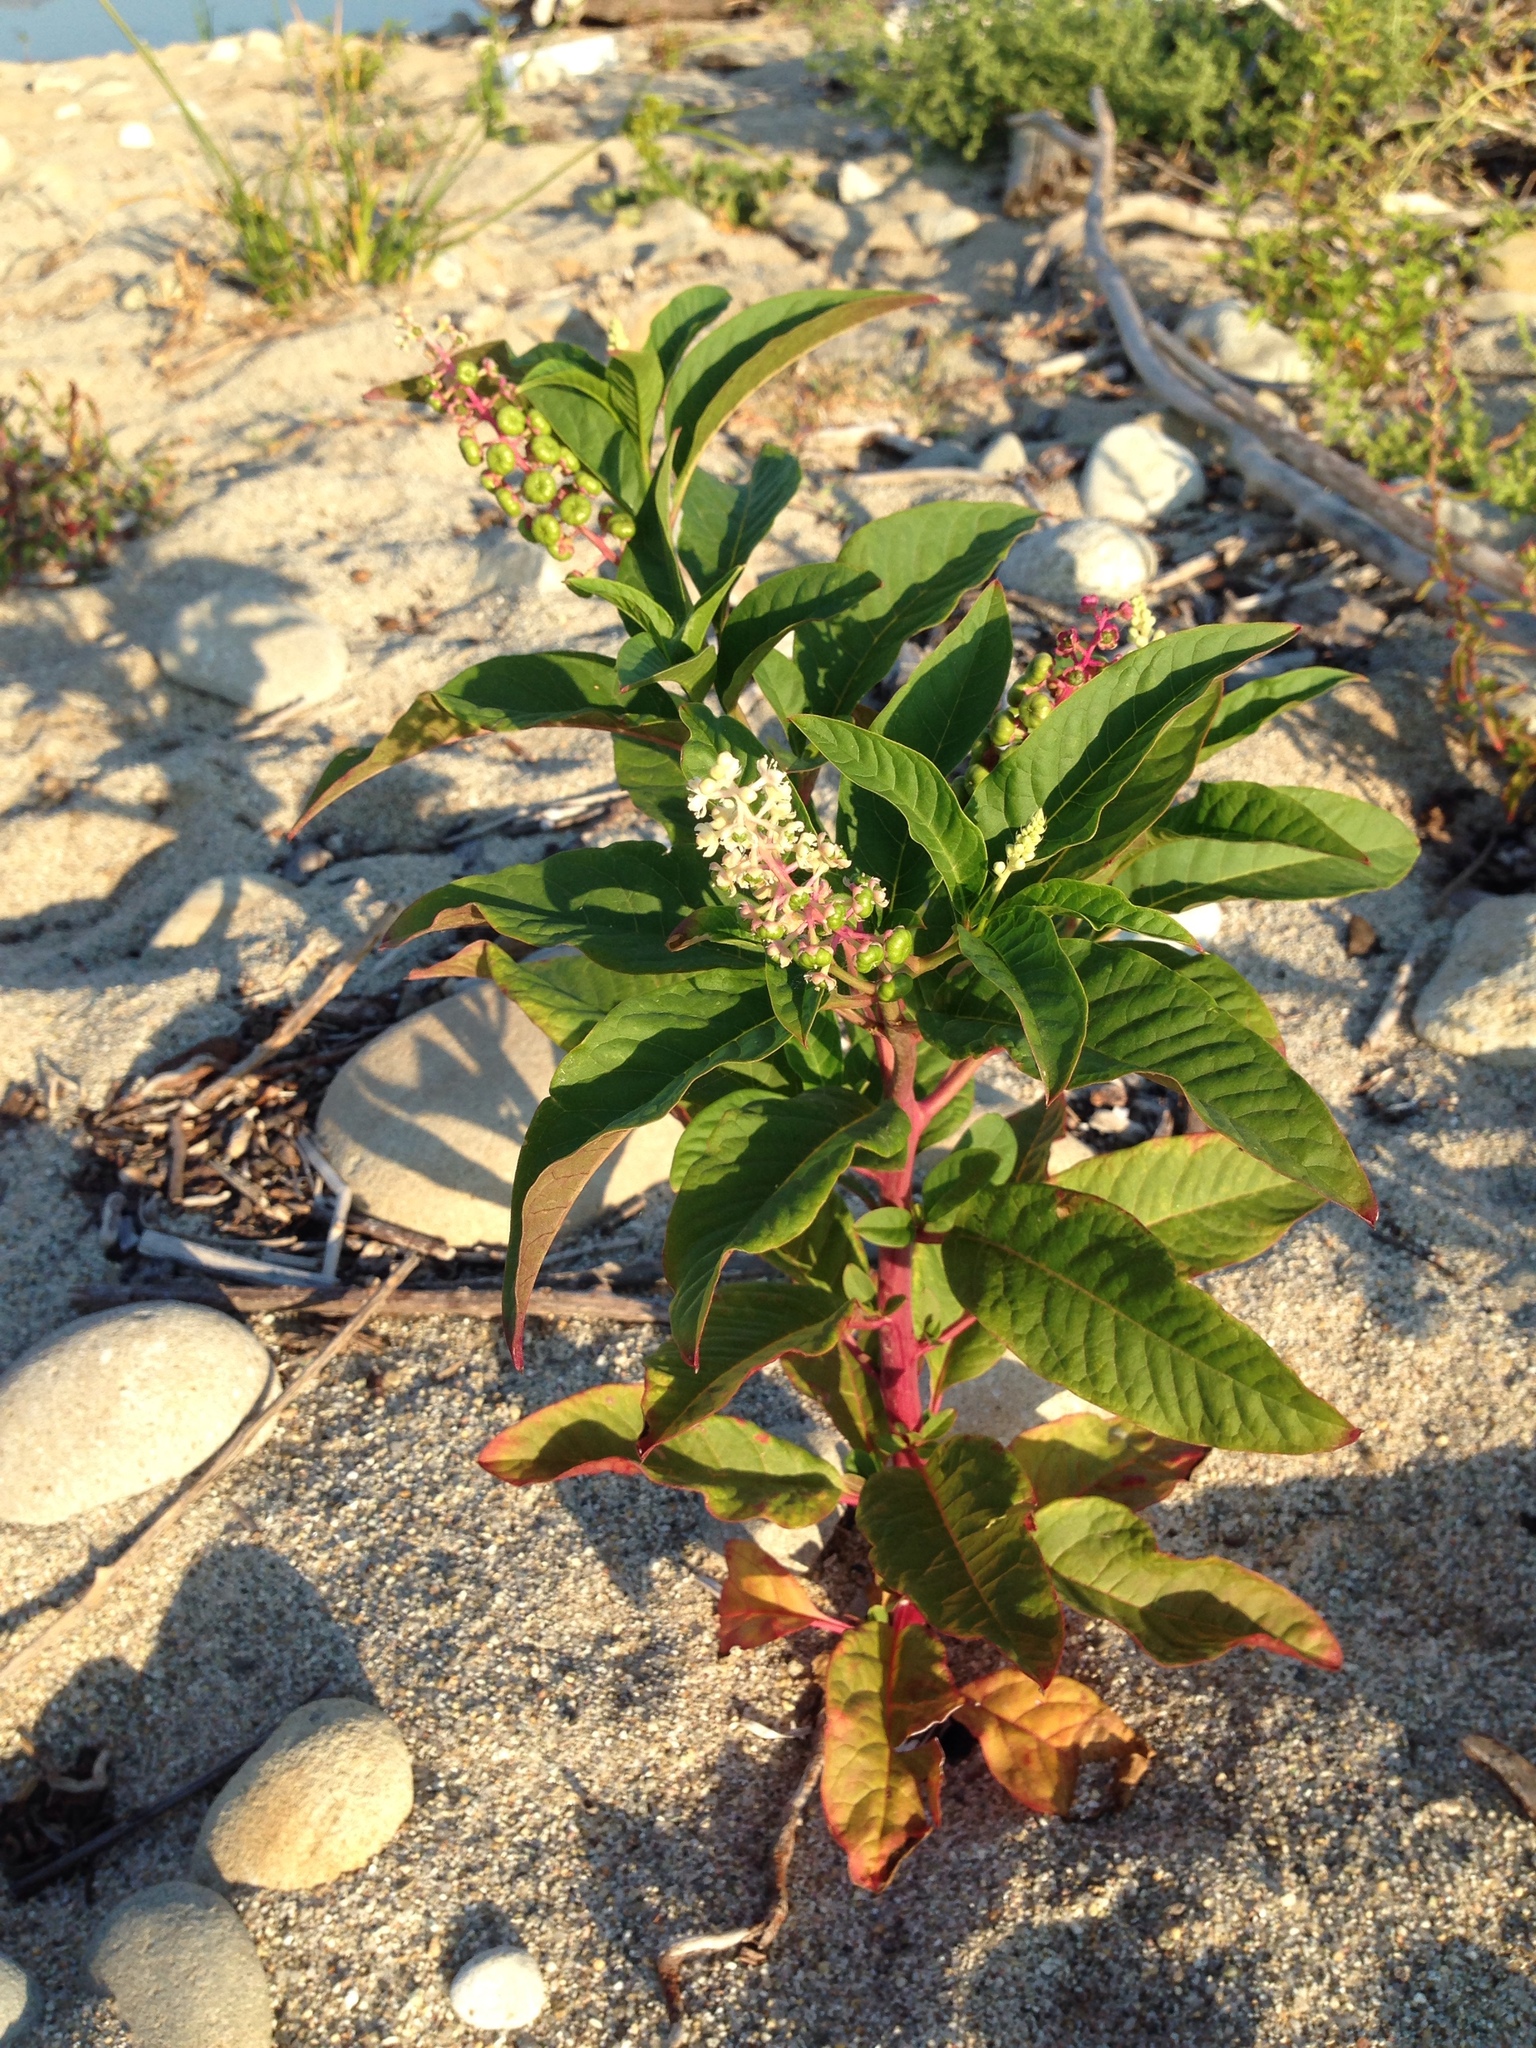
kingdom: Plantae
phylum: Tracheophyta
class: Magnoliopsida
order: Caryophyllales
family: Phytolaccaceae
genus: Phytolacca
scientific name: Phytolacca americana
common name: American pokeweed
